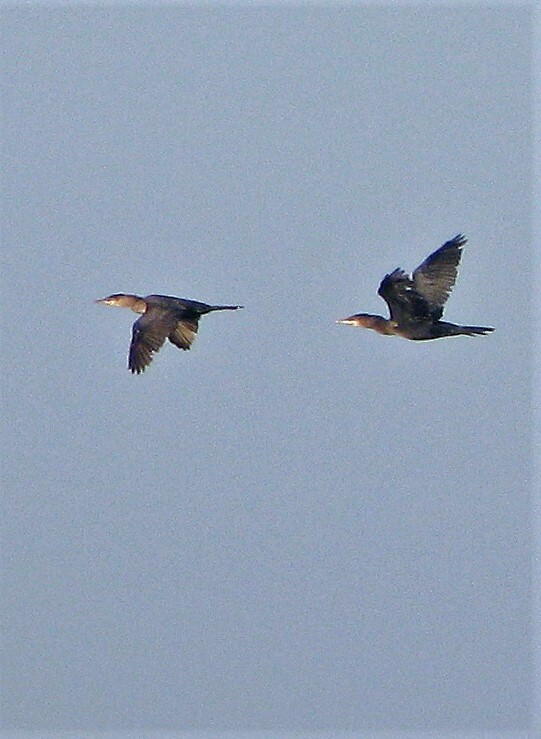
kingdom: Animalia
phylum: Chordata
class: Aves
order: Suliformes
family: Phalacrocoracidae
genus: Phalacrocorax
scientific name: Phalacrocorax brasilianus
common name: Neotropic cormorant
